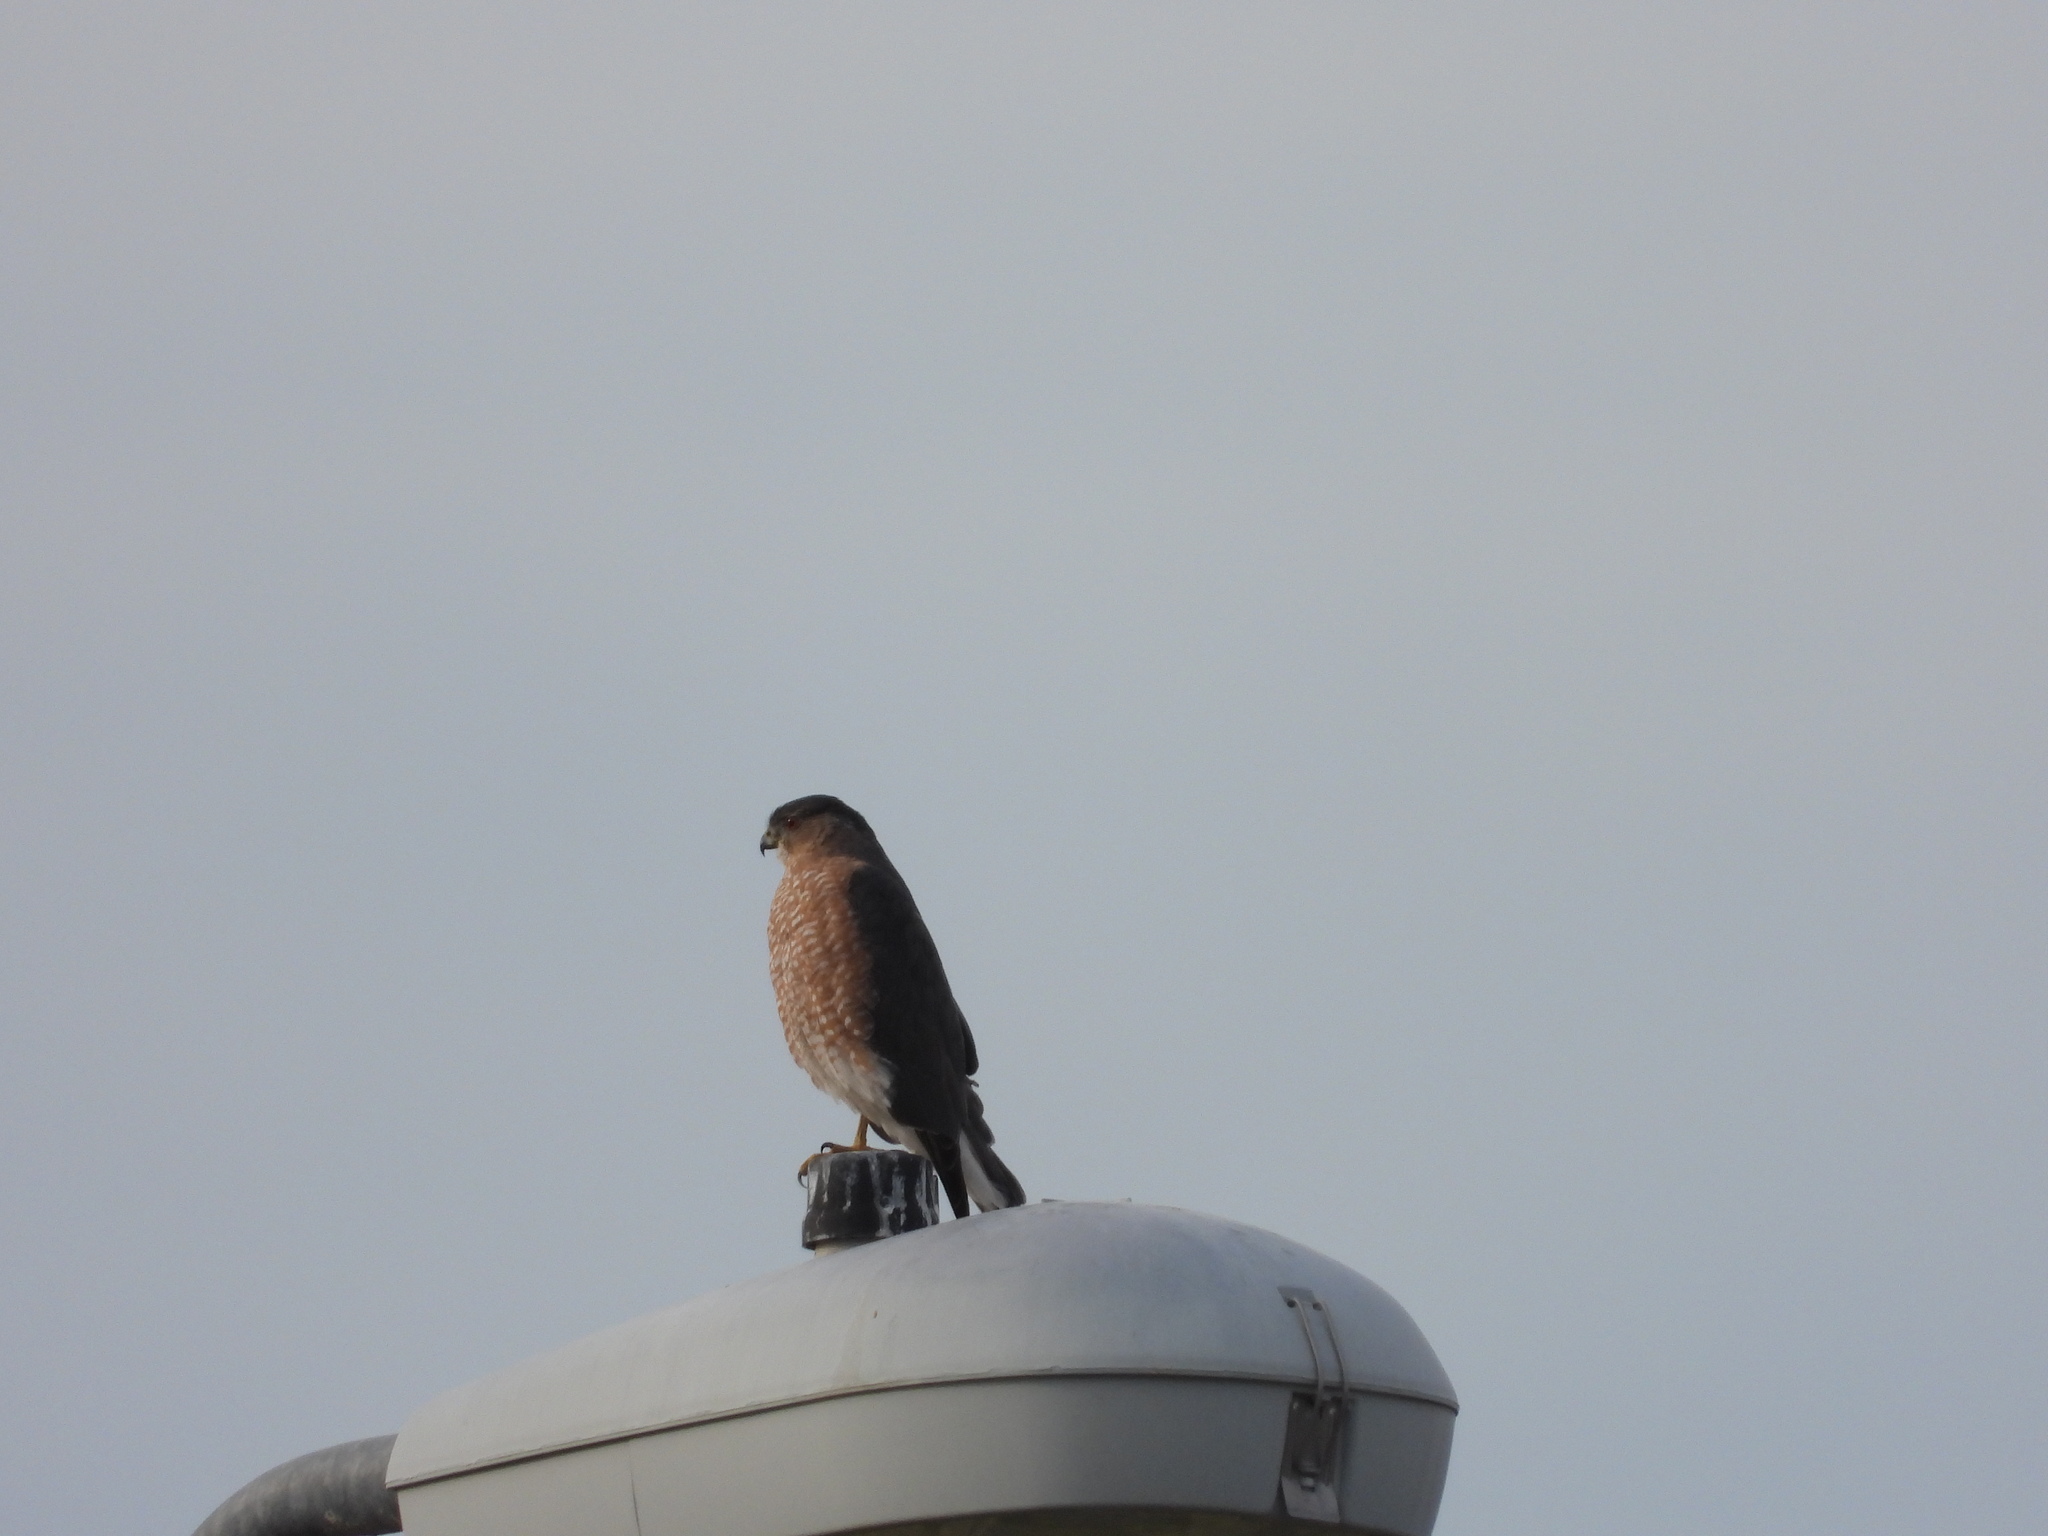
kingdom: Animalia
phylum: Chordata
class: Aves
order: Accipitriformes
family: Accipitridae
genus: Accipiter
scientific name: Accipiter cooperii
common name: Cooper's hawk
